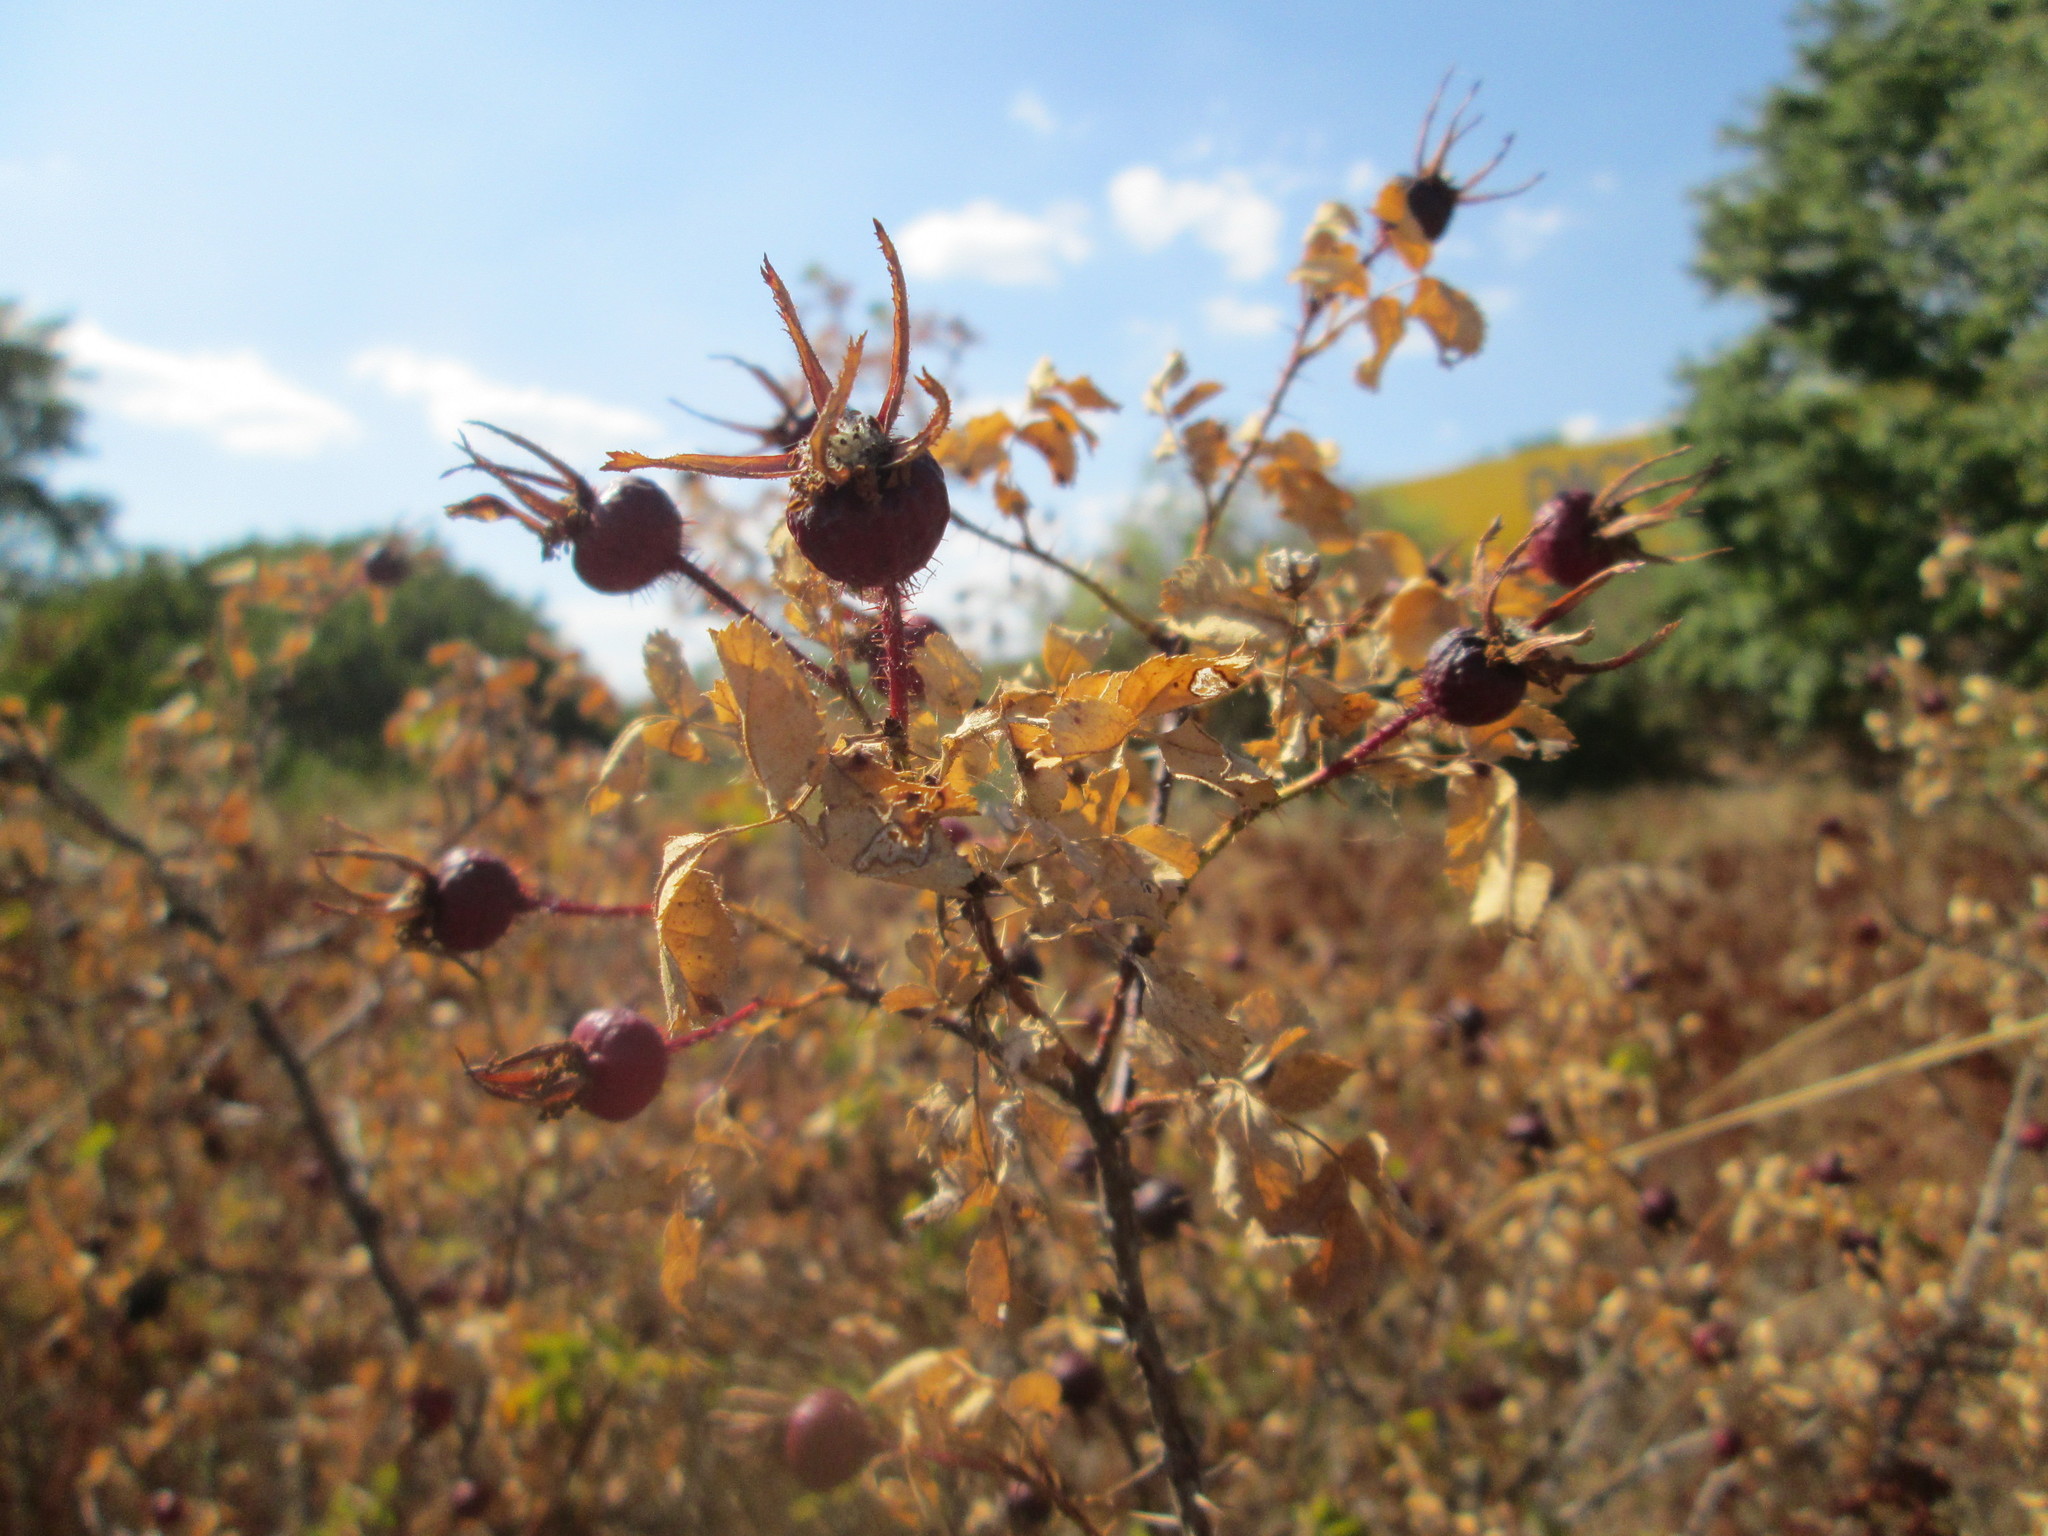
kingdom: Plantae
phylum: Tracheophyta
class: Magnoliopsida
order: Rosales
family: Rosaceae
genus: Rosa
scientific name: Rosa spinosissima
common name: Burnet rose
